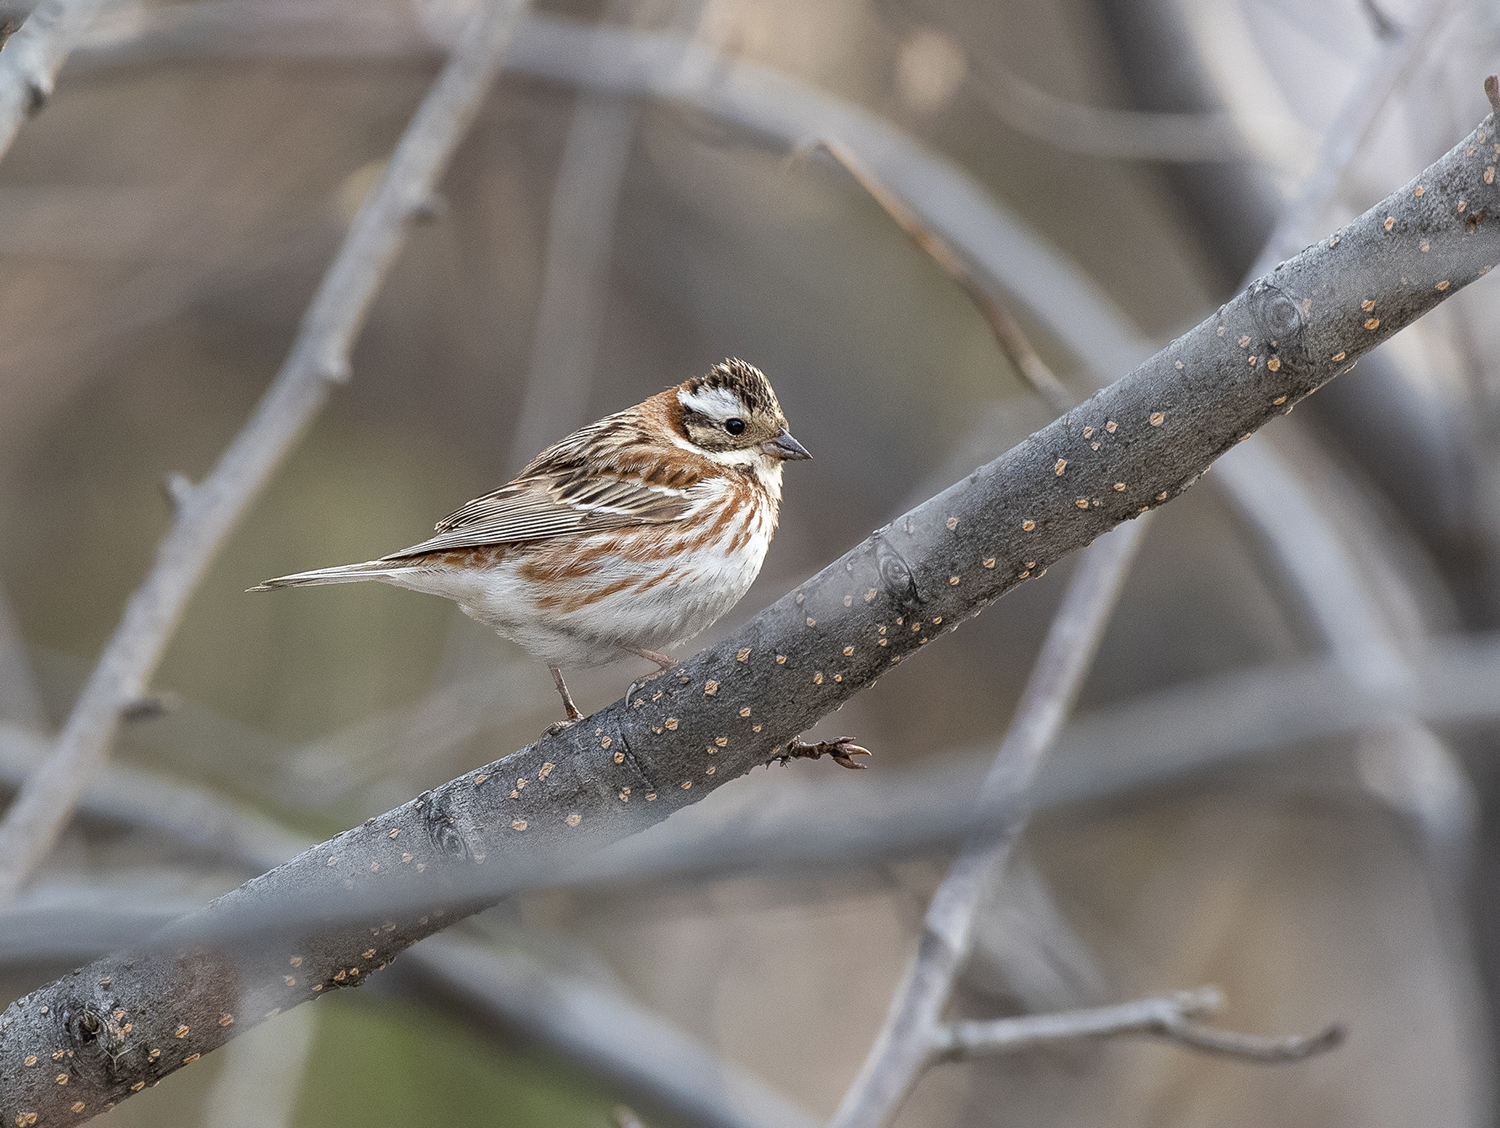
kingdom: Animalia
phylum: Chordata
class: Aves
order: Passeriformes
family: Emberizidae
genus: Emberiza
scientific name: Emberiza rustica
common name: Rustic bunting
